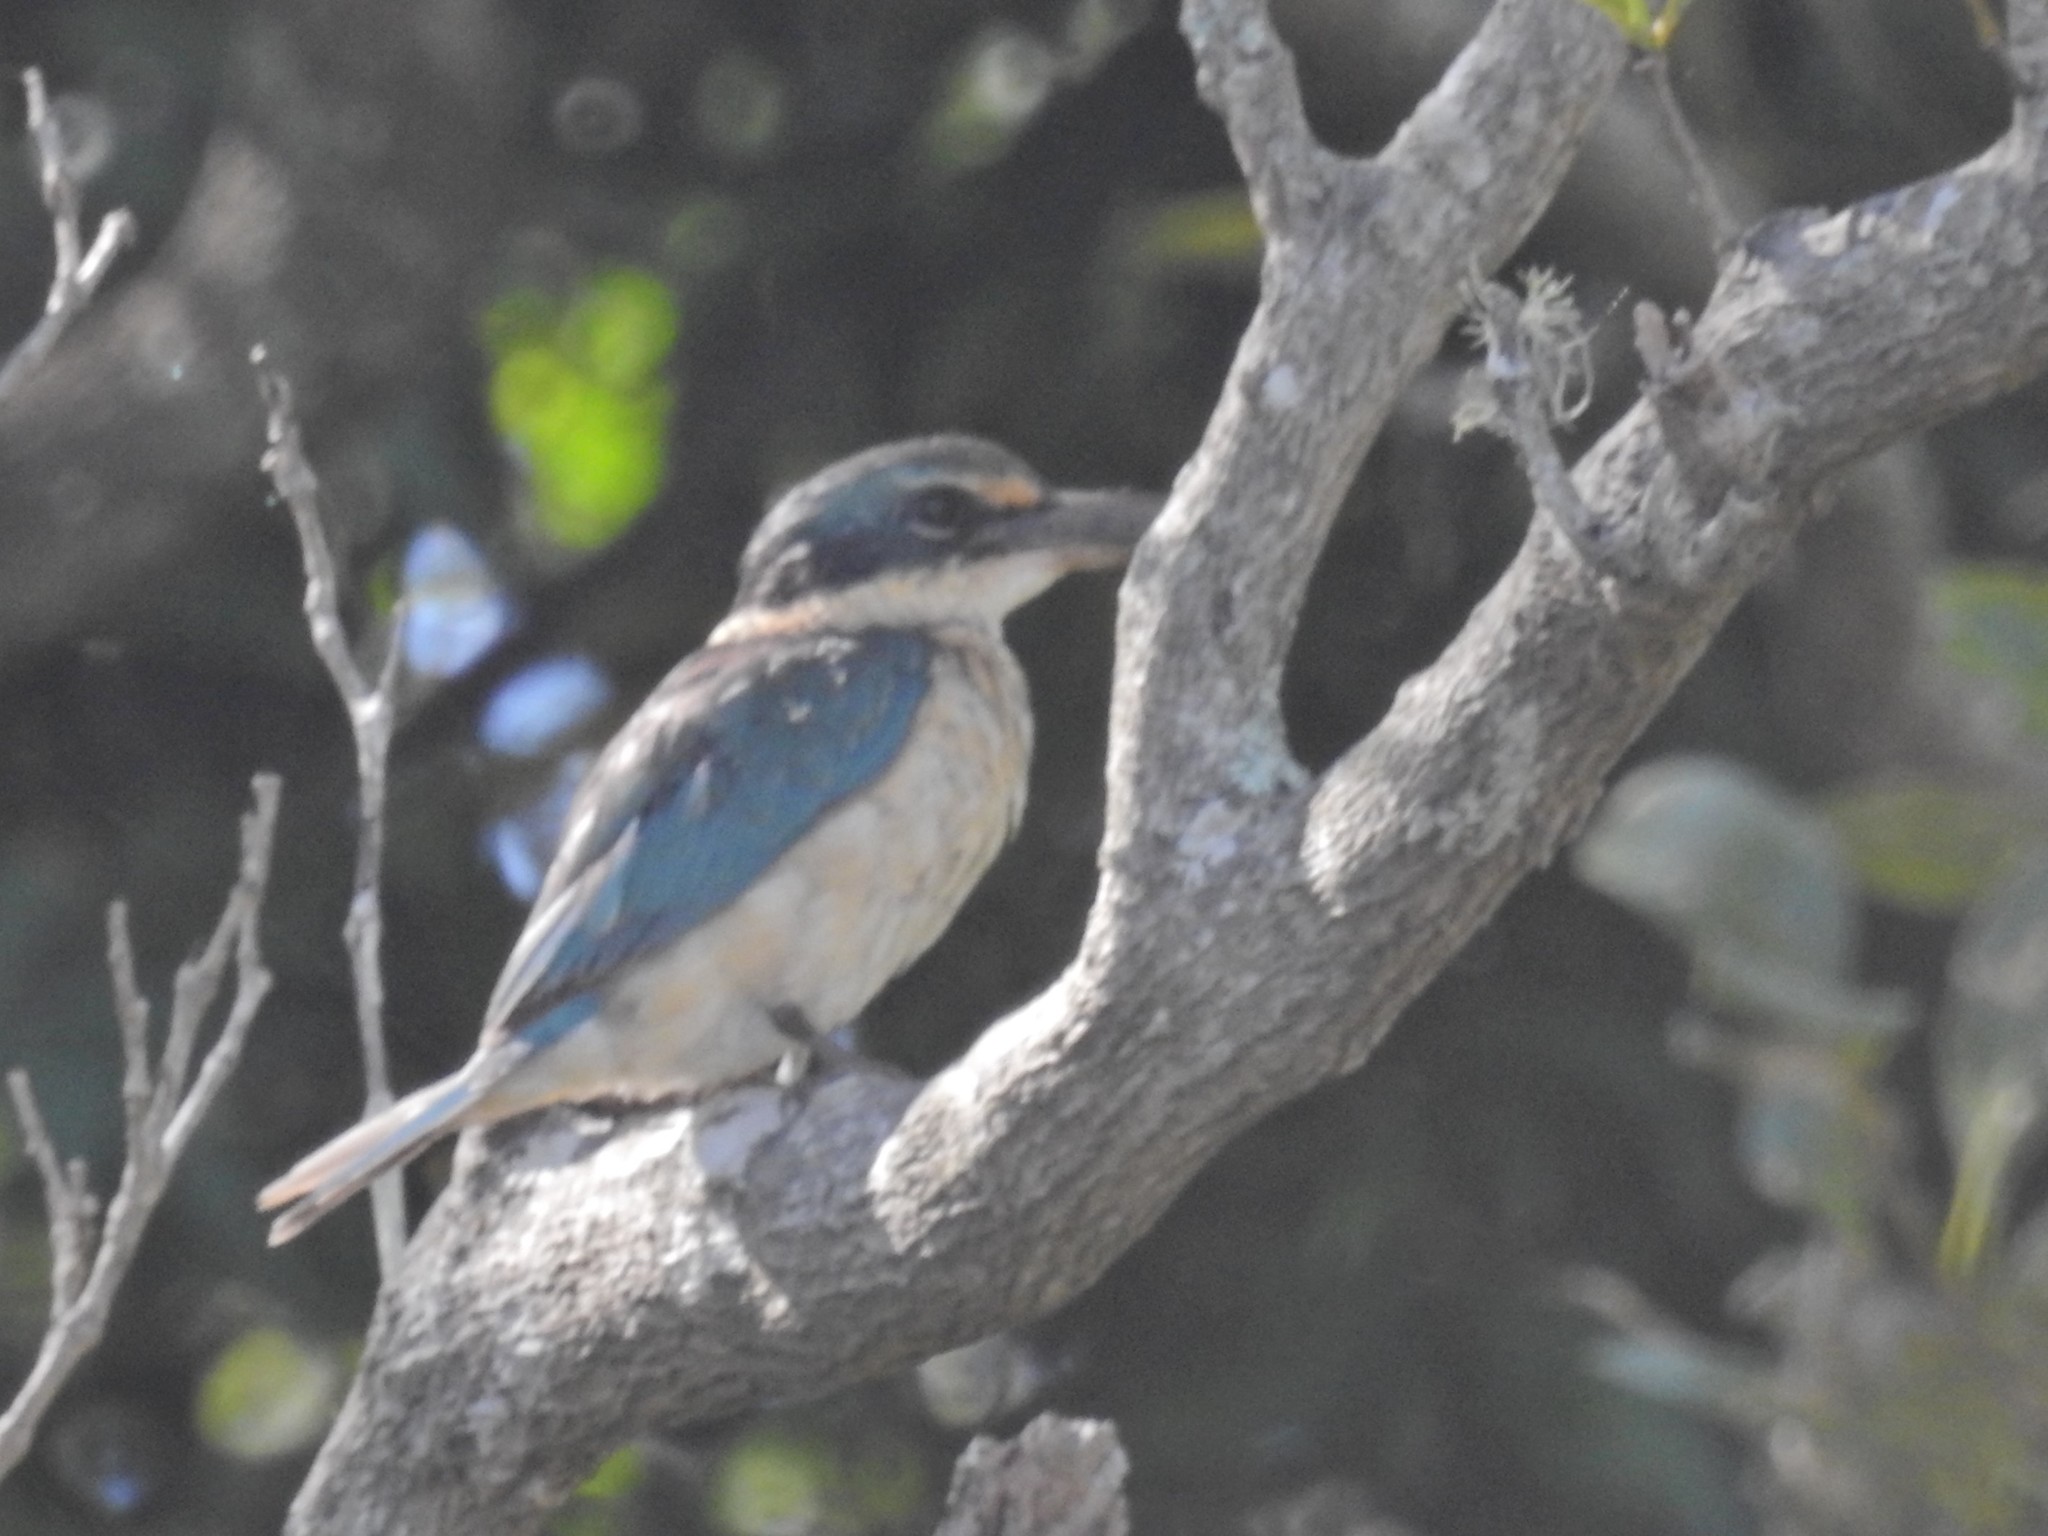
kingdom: Animalia
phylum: Chordata
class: Aves
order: Coraciiformes
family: Alcedinidae
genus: Todiramphus
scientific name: Todiramphus sanctus
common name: Sacred kingfisher
